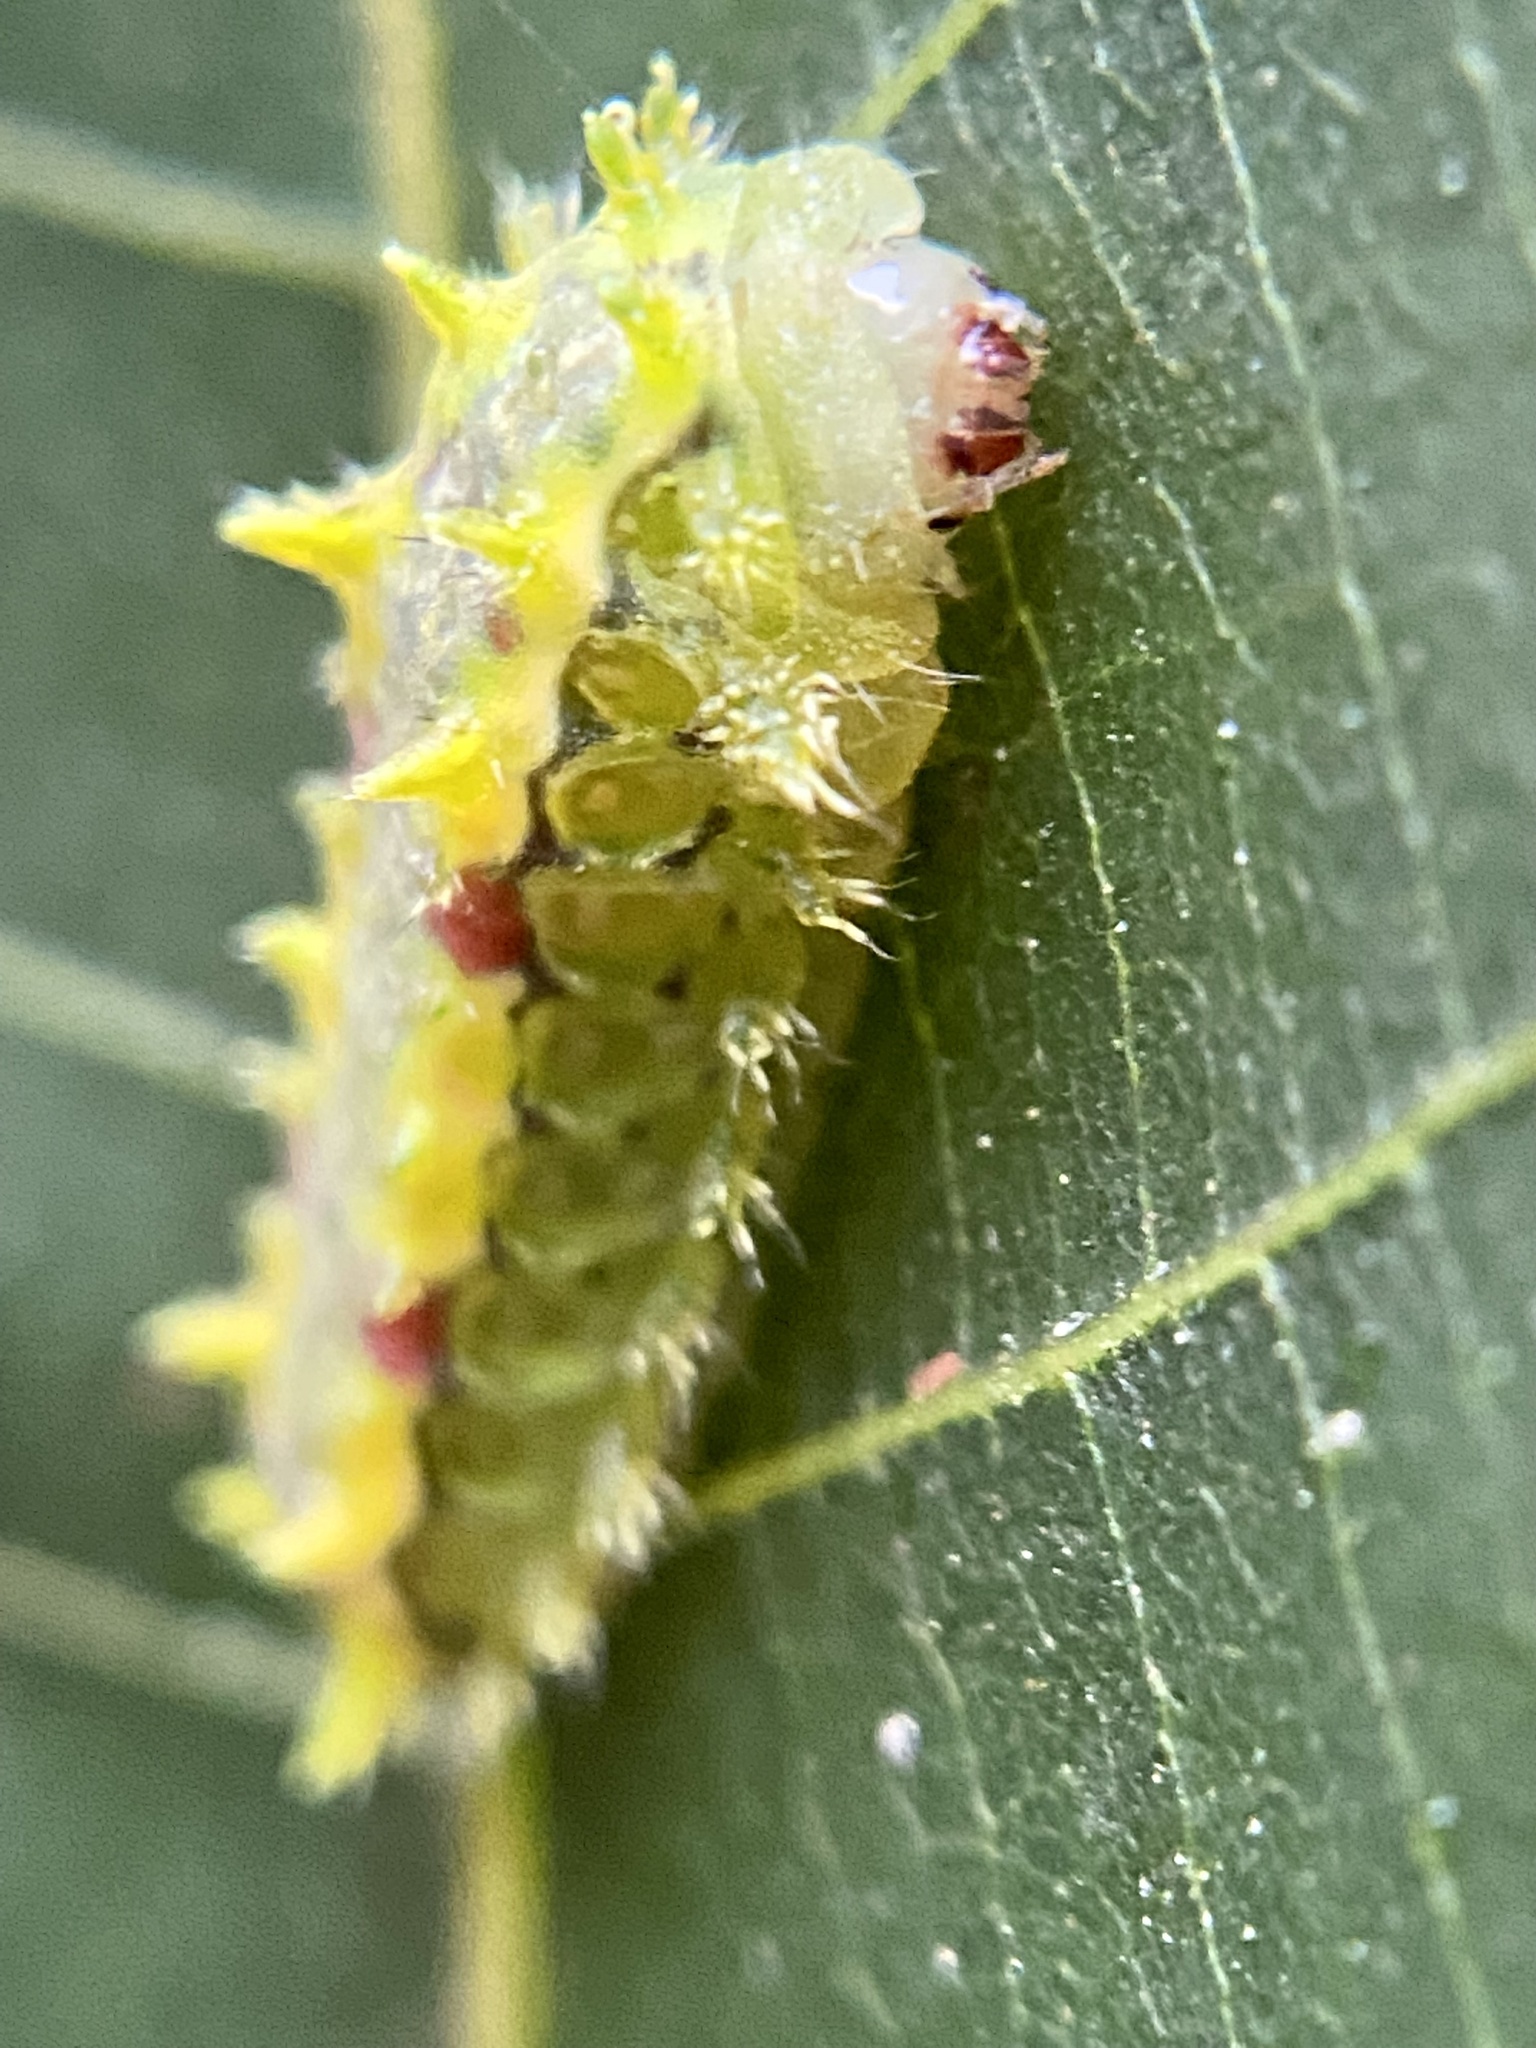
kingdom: Animalia
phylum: Arthropoda
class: Insecta
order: Lepidoptera
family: Limacodidae
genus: Euclea
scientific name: Euclea delphinii
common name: Spiny oak-slug moth
